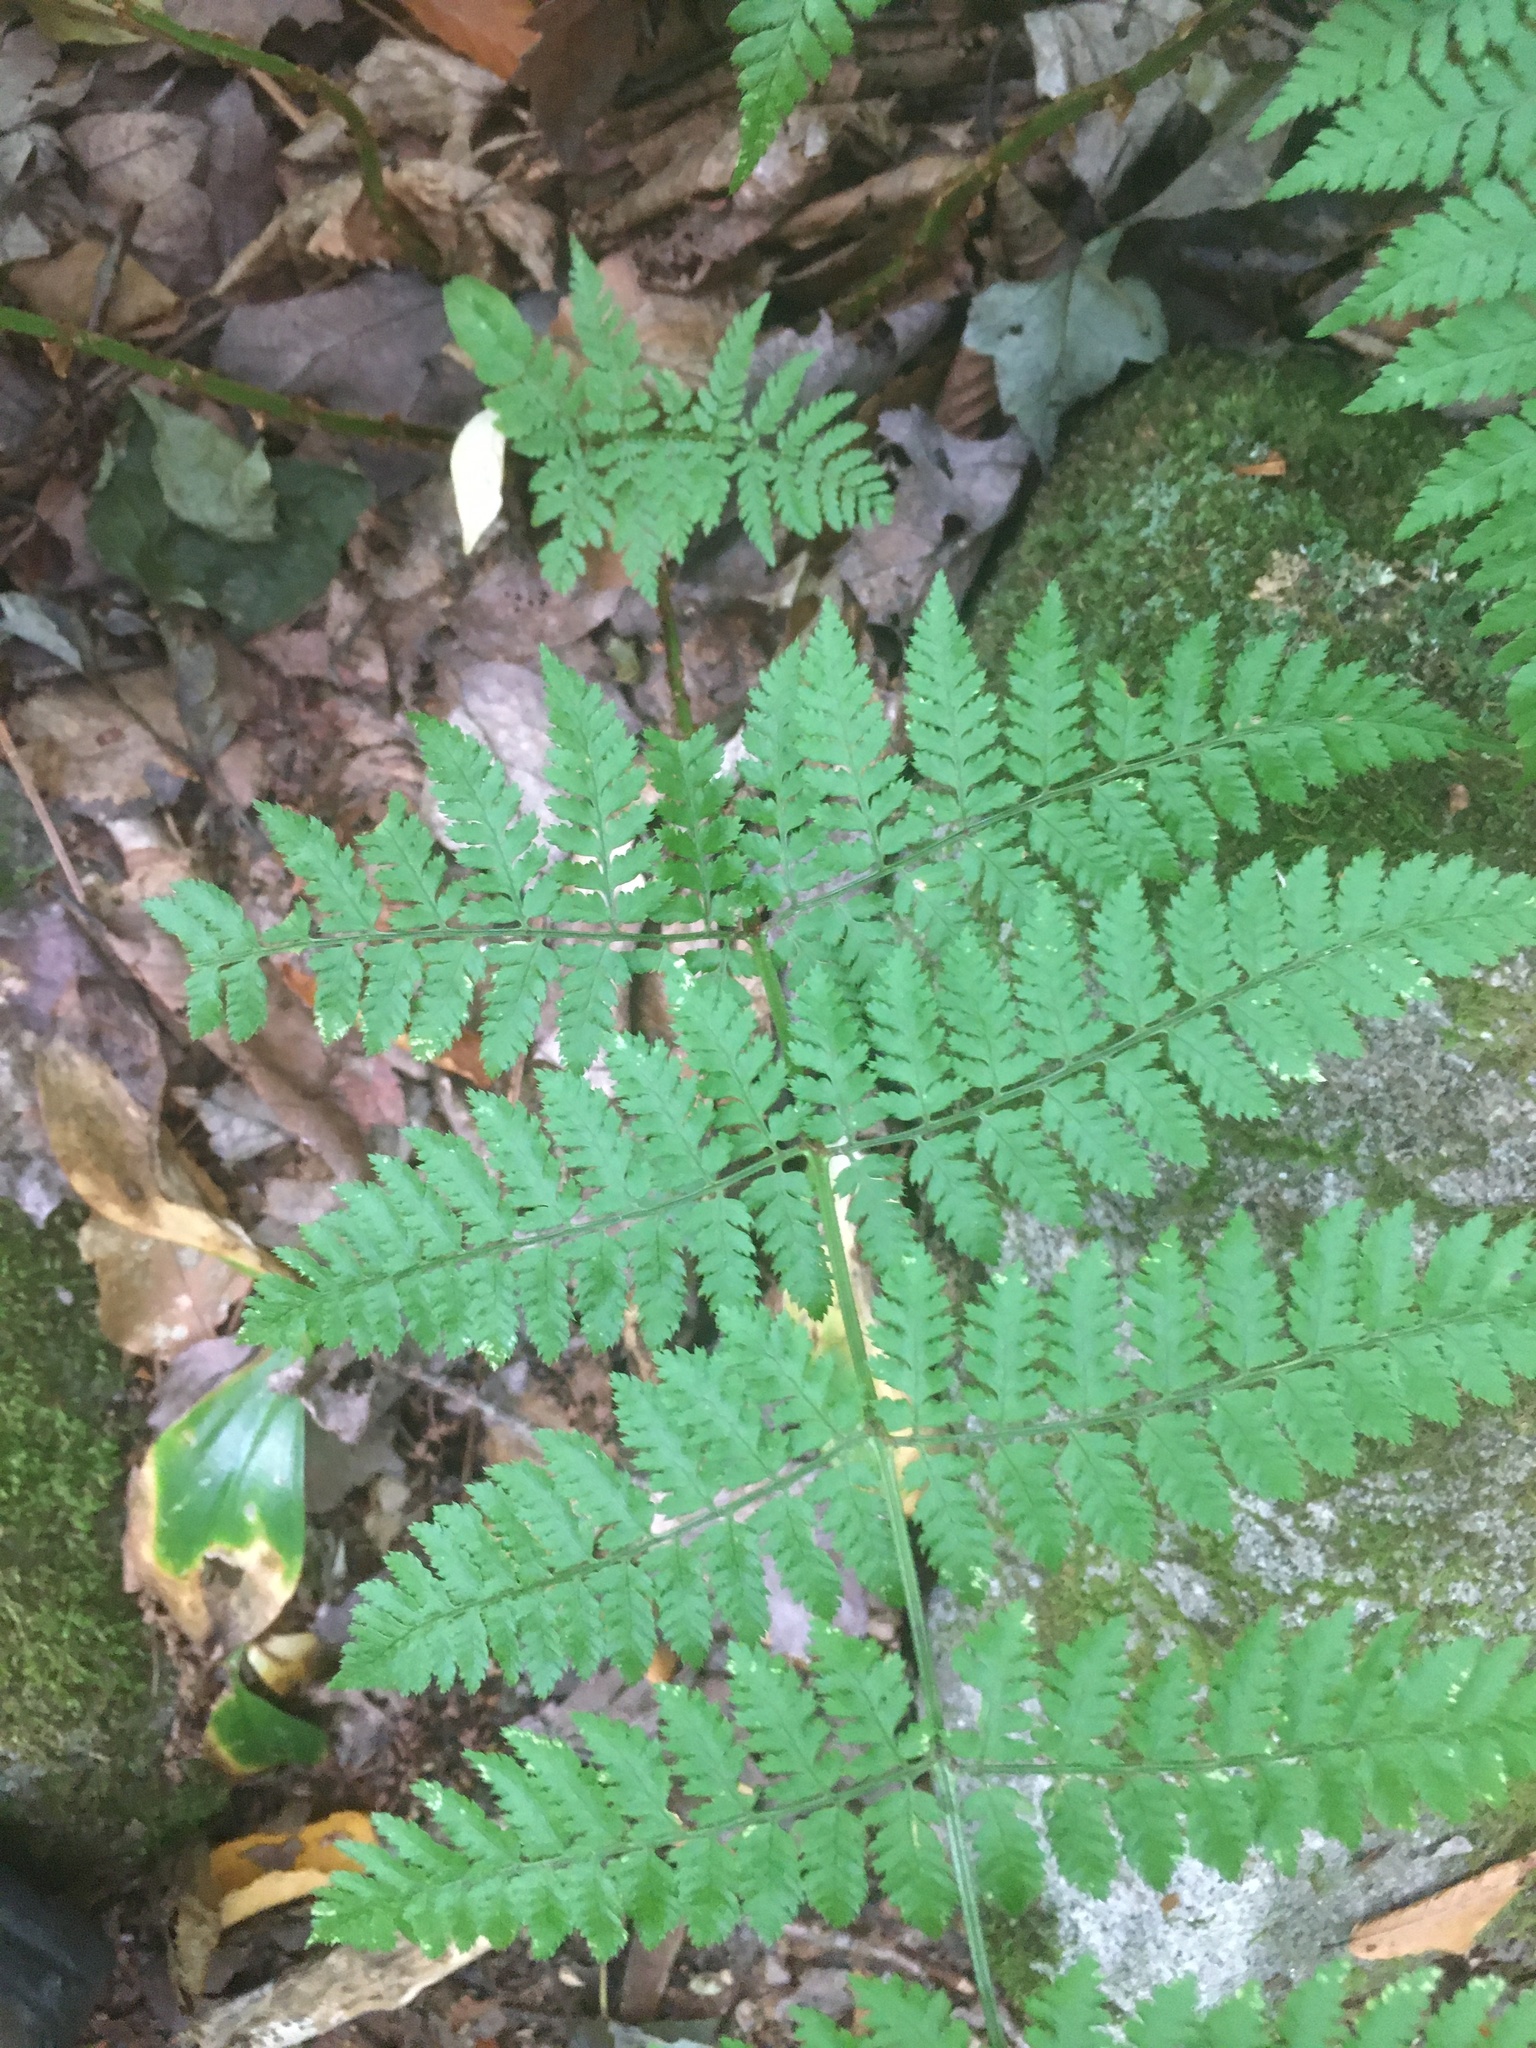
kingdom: Plantae
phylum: Tracheophyta
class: Polypodiopsida
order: Polypodiales
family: Dryopteridaceae
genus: Dryopteris
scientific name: Dryopteris intermedia
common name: Evergreen wood fern
